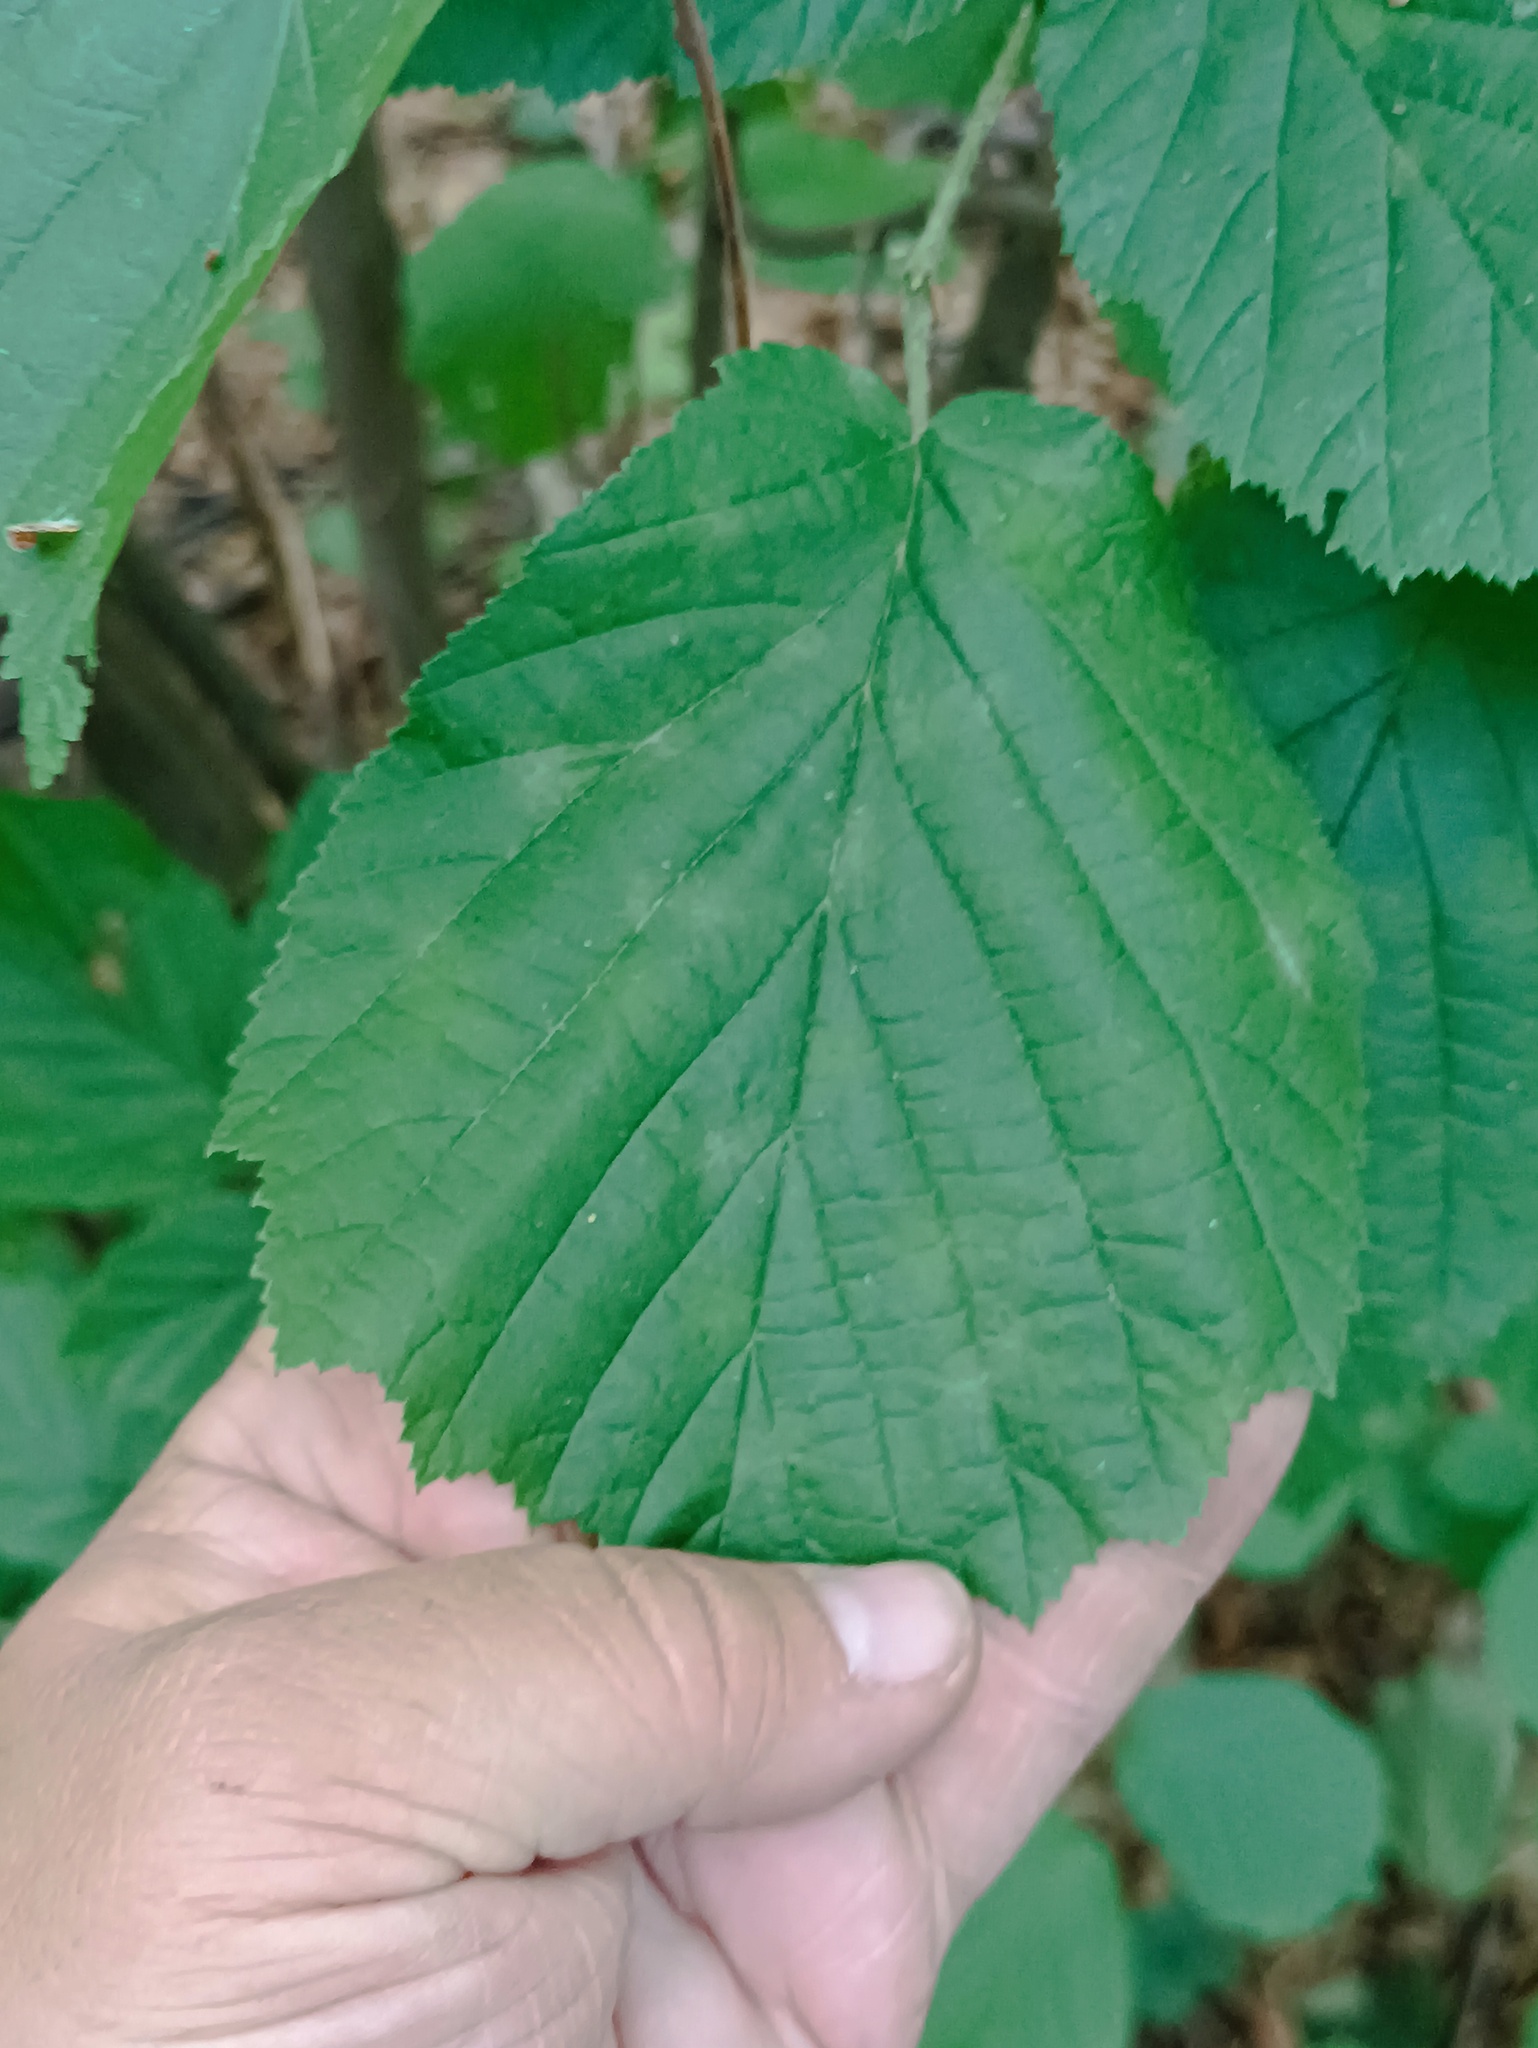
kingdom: Plantae
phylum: Tracheophyta
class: Magnoliopsida
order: Fagales
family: Betulaceae
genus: Corylus
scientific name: Corylus avellana
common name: European hazel
